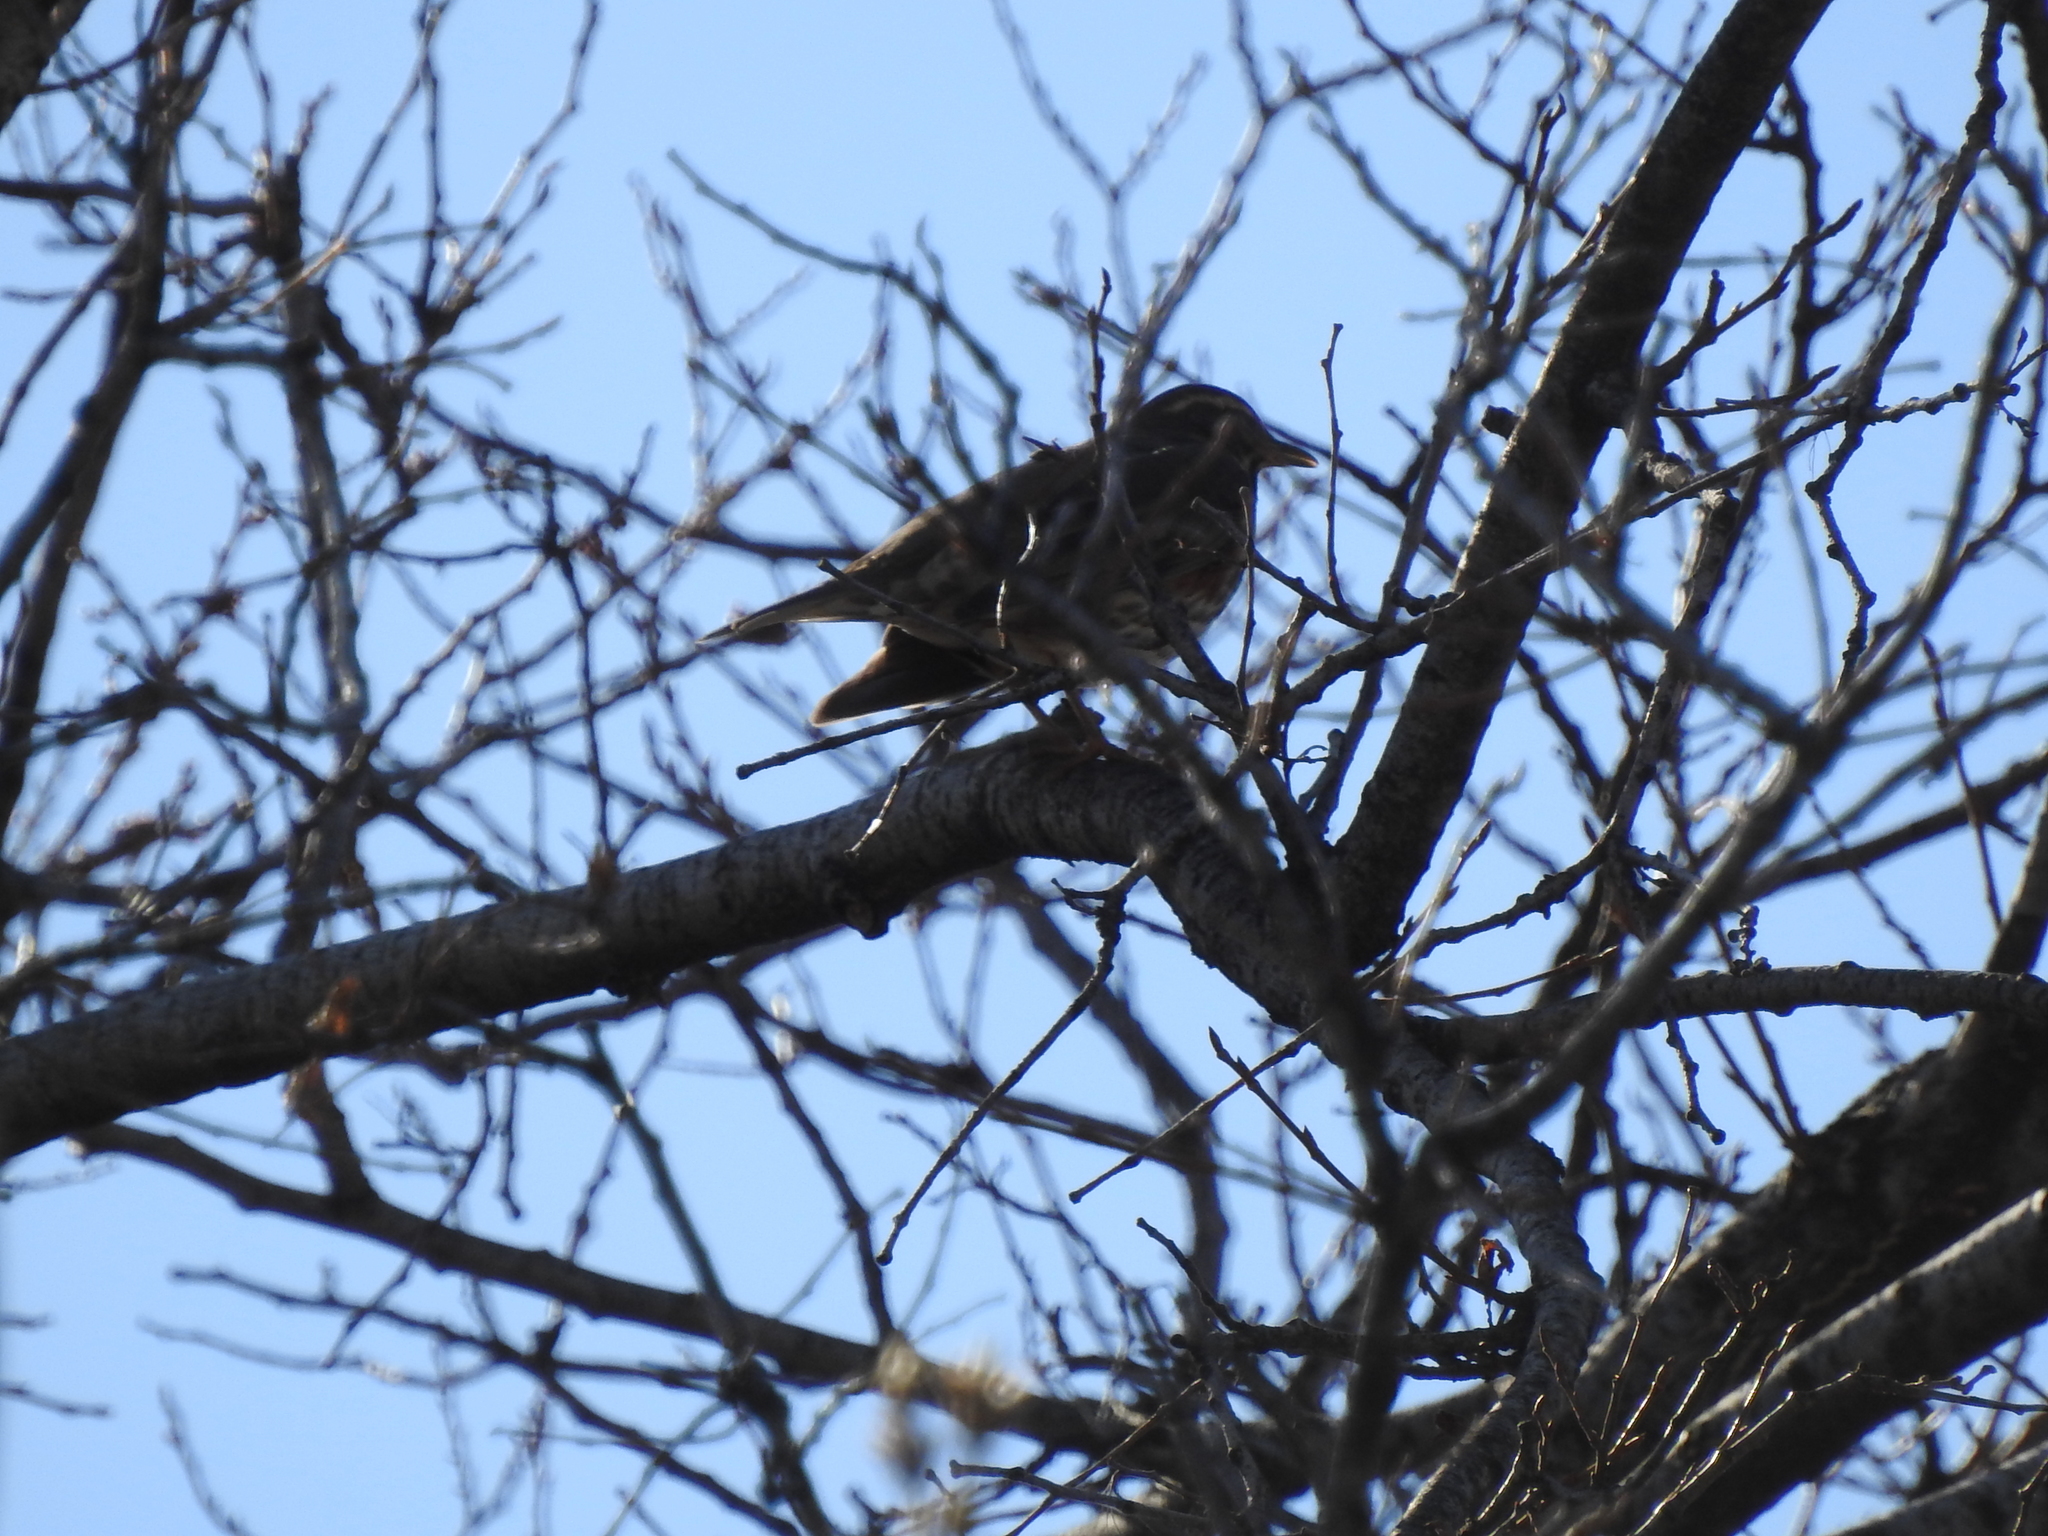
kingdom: Animalia
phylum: Chordata
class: Aves
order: Passeriformes
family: Turdidae
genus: Turdus
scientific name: Turdus iliacus
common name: Redwing
